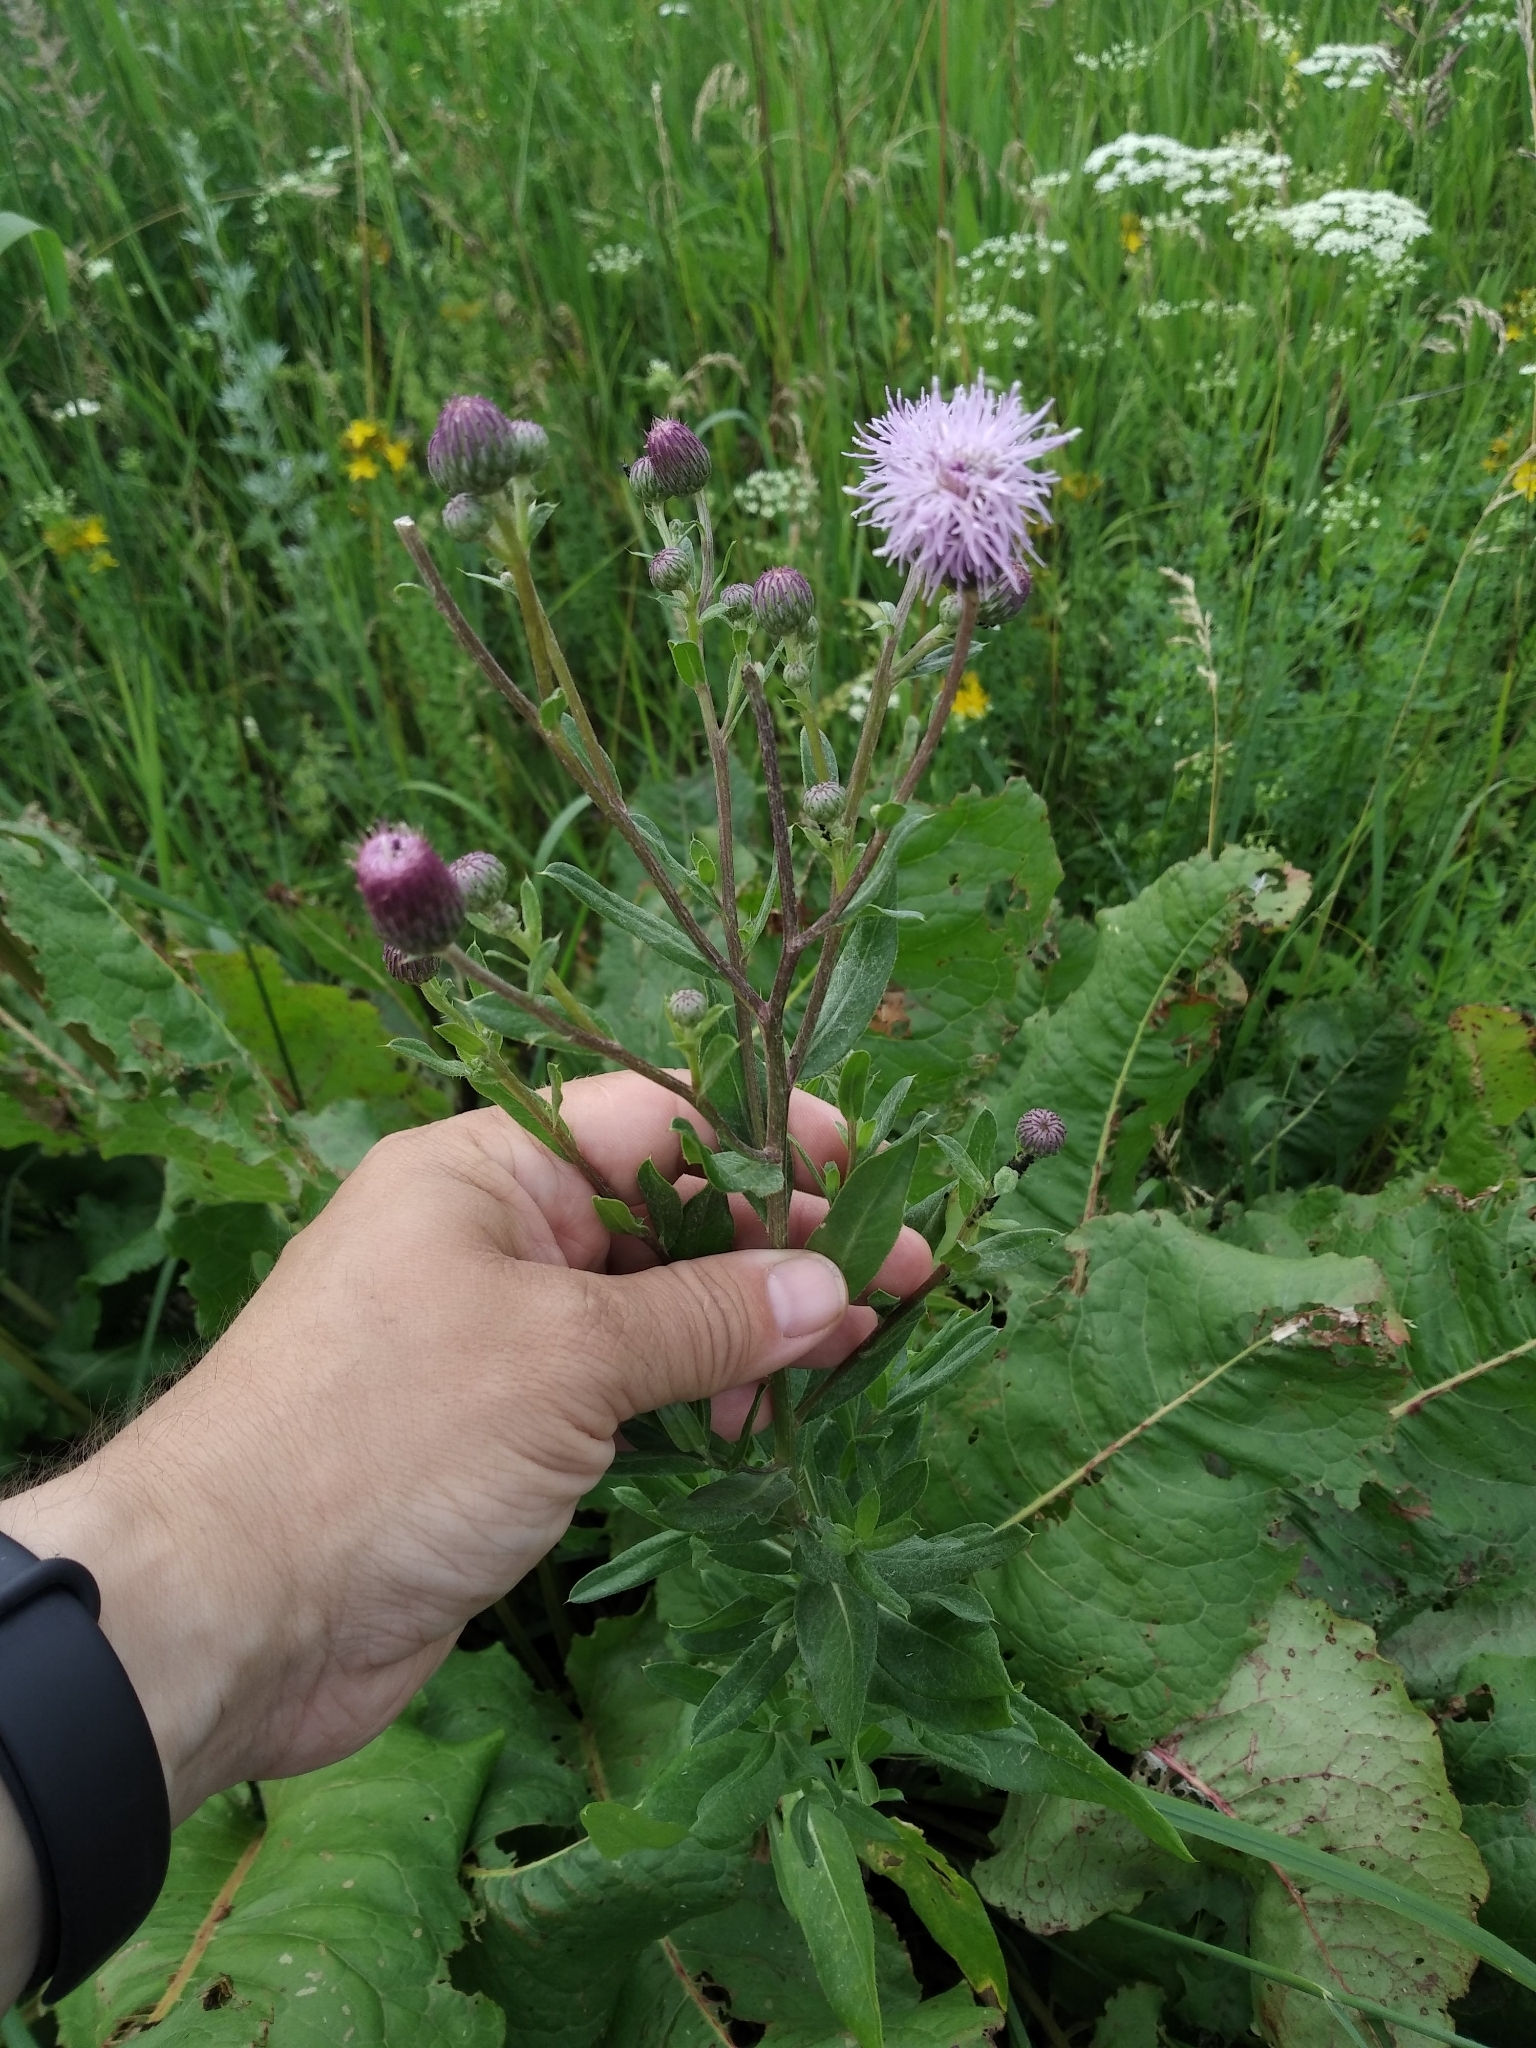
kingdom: Plantae
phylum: Tracheophyta
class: Magnoliopsida
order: Asterales
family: Asteraceae
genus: Cirsium
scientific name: Cirsium arvense
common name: Creeping thistle
